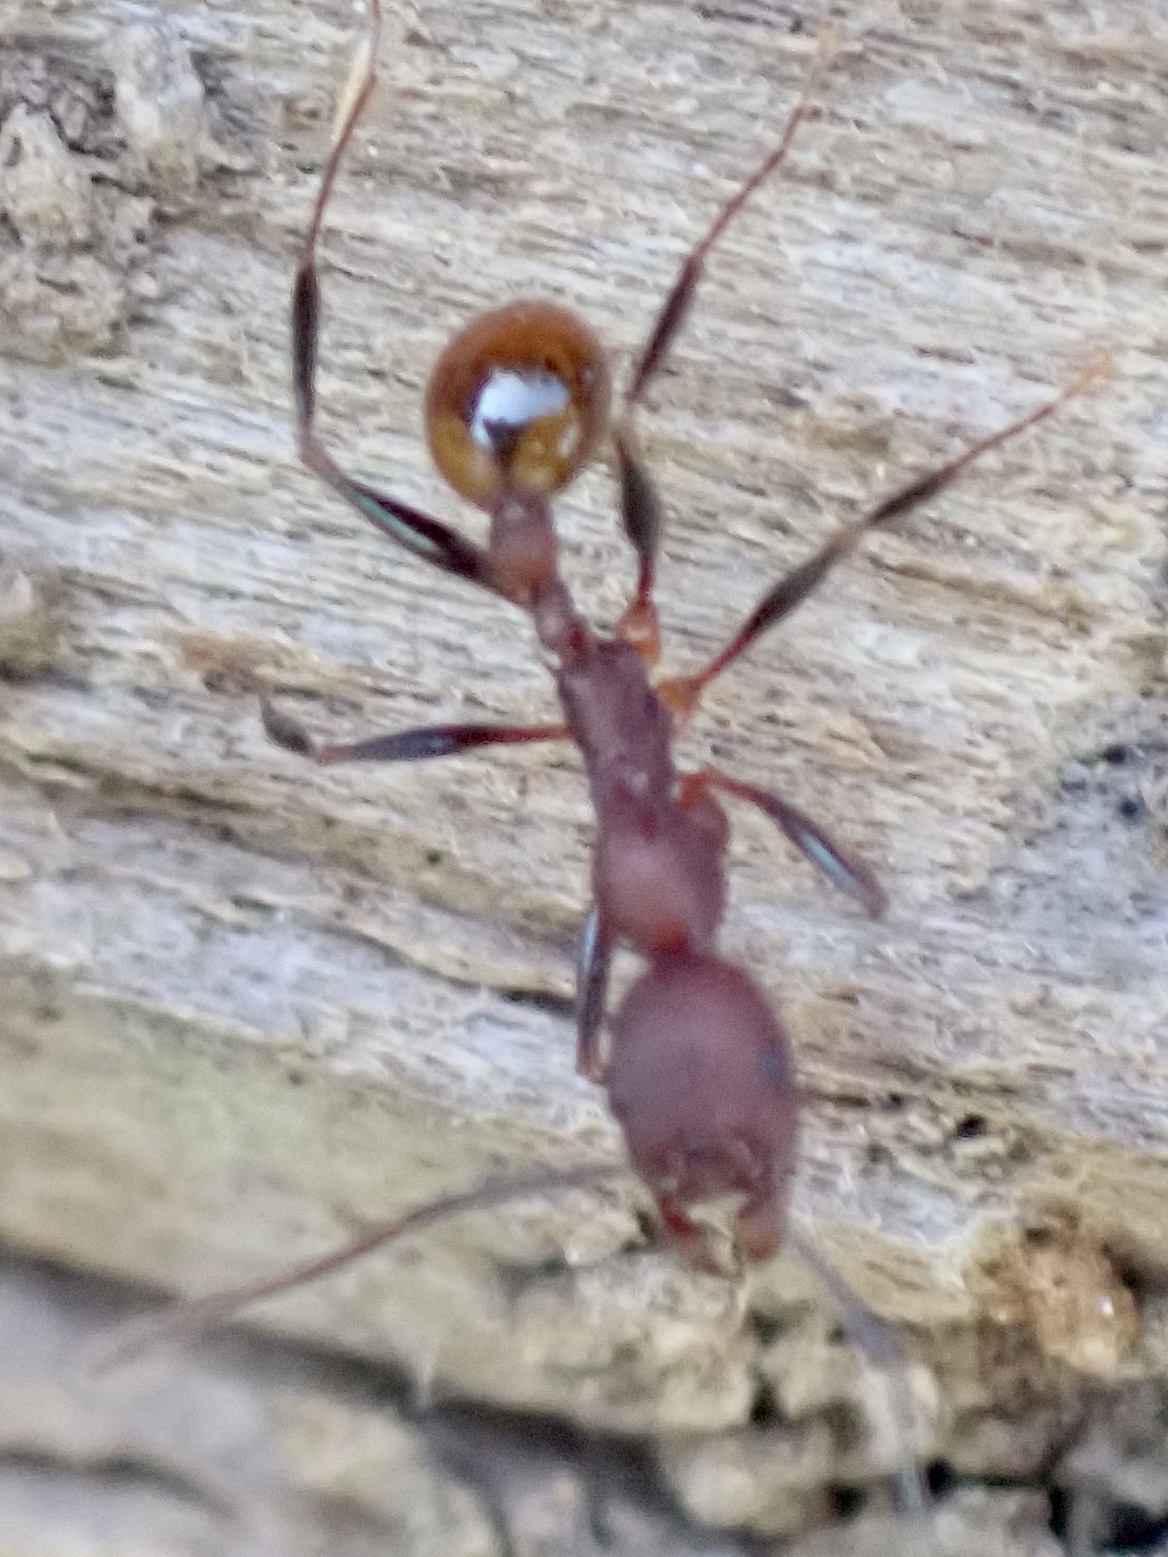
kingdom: Animalia
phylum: Arthropoda
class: Insecta
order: Hymenoptera
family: Formicidae
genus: Aphaenogaster
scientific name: Aphaenogaster lamellidens
